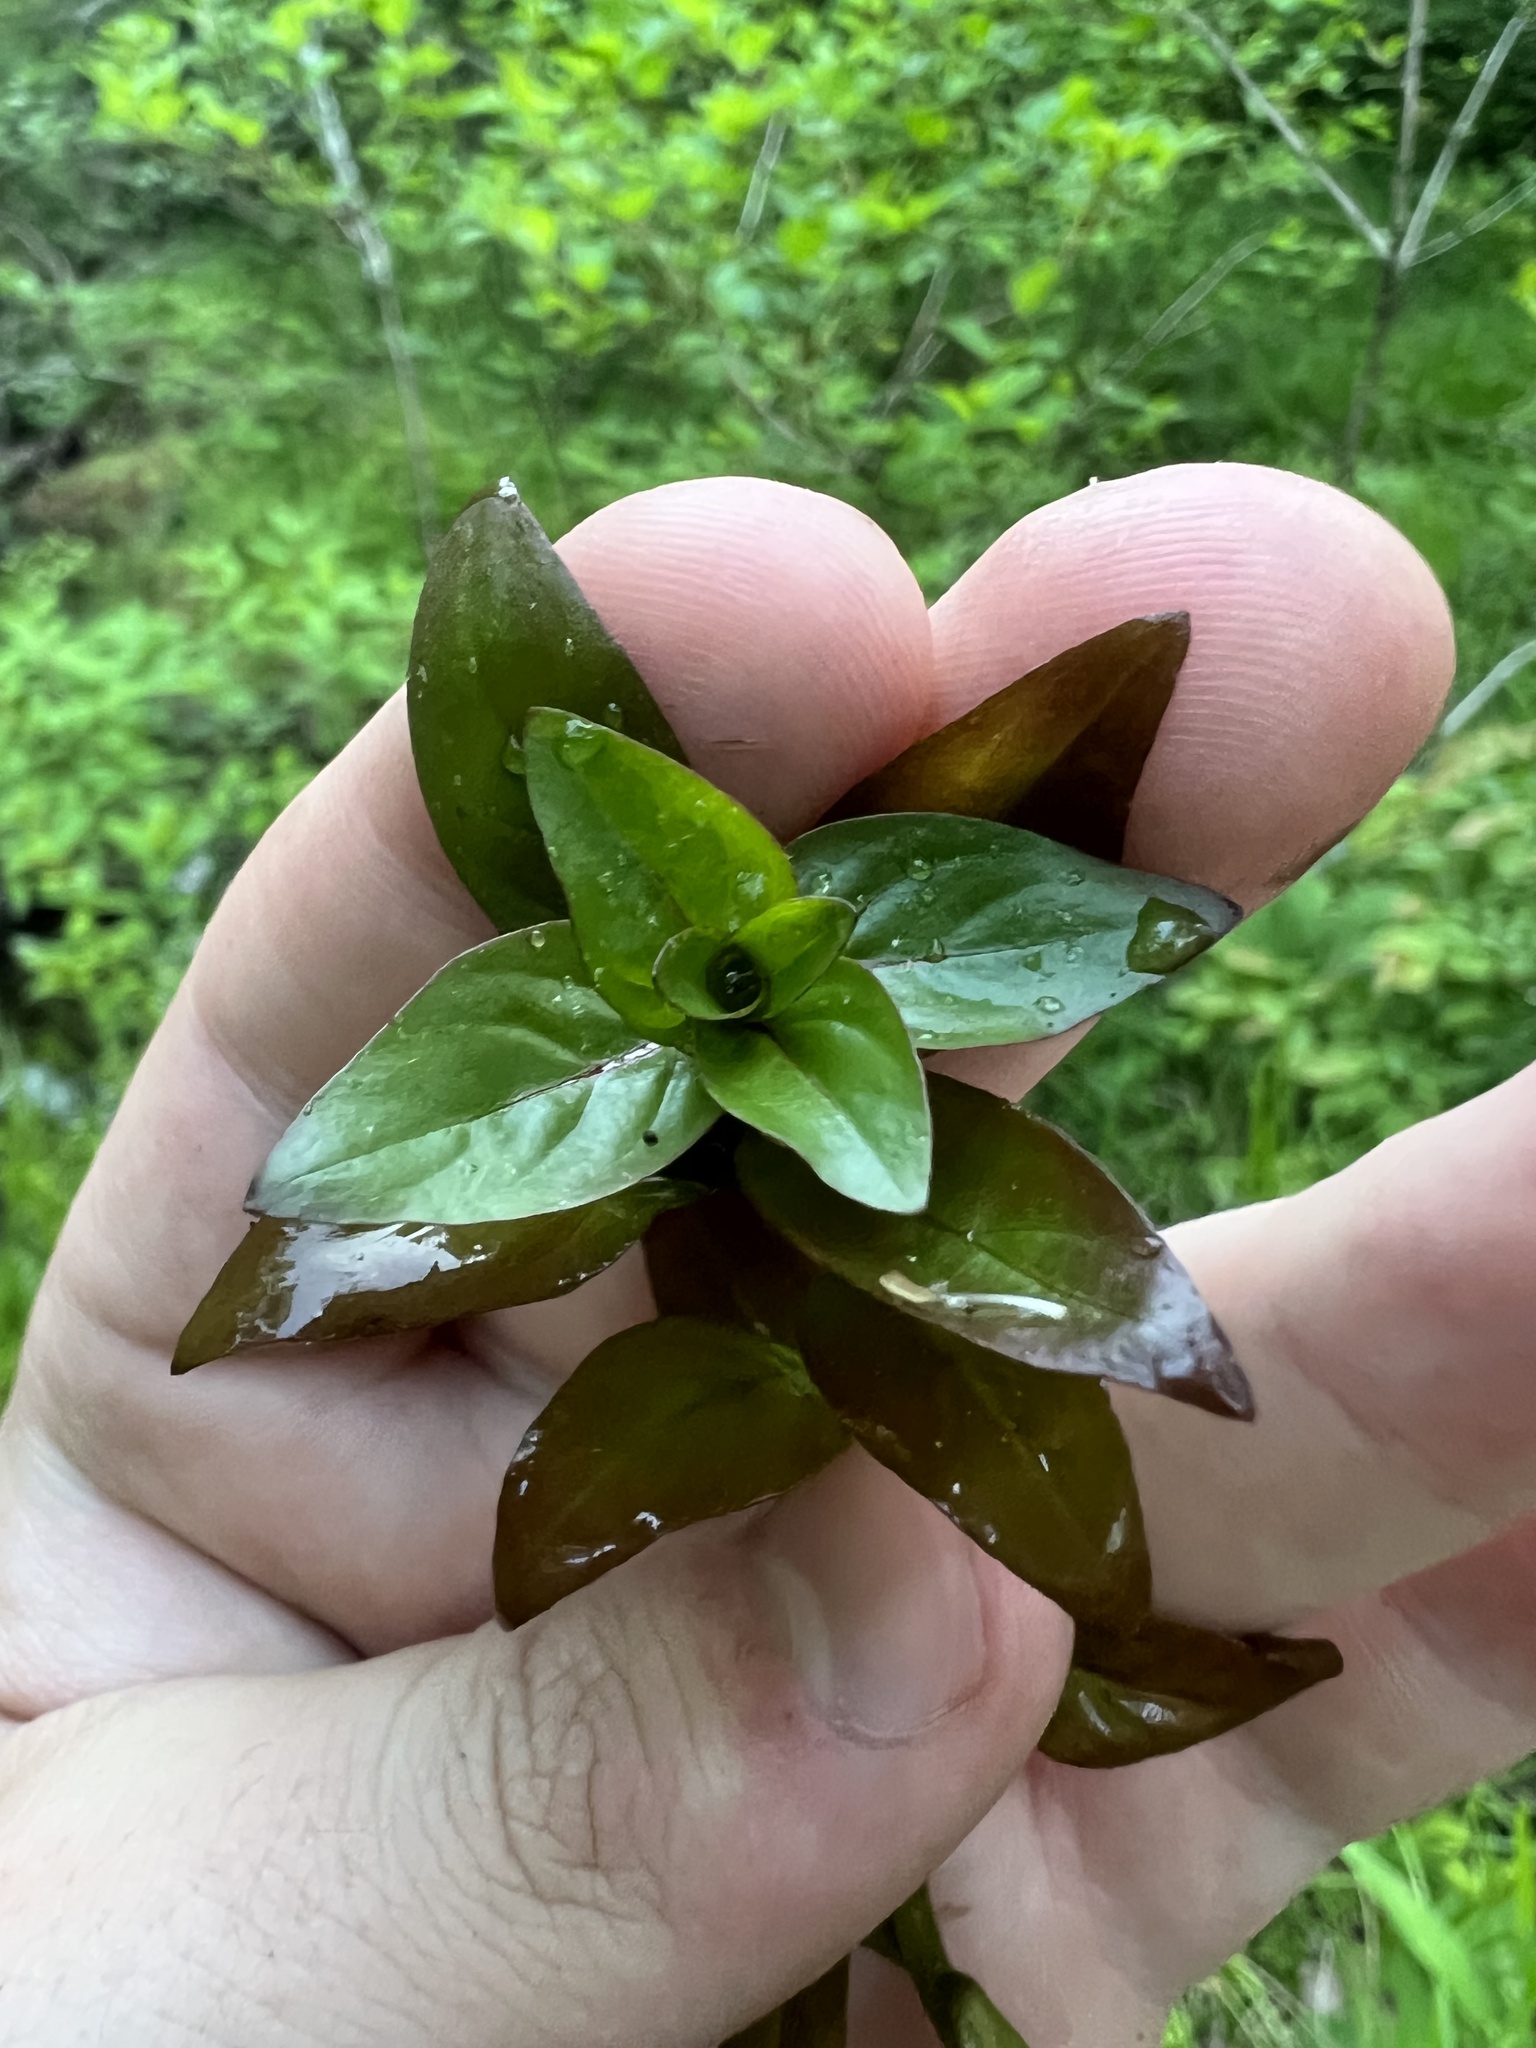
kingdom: Plantae
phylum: Tracheophyta
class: Magnoliopsida
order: Myrtales
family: Onagraceae
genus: Ludwigia
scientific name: Ludwigia palustris
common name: Hampshire-purslane
